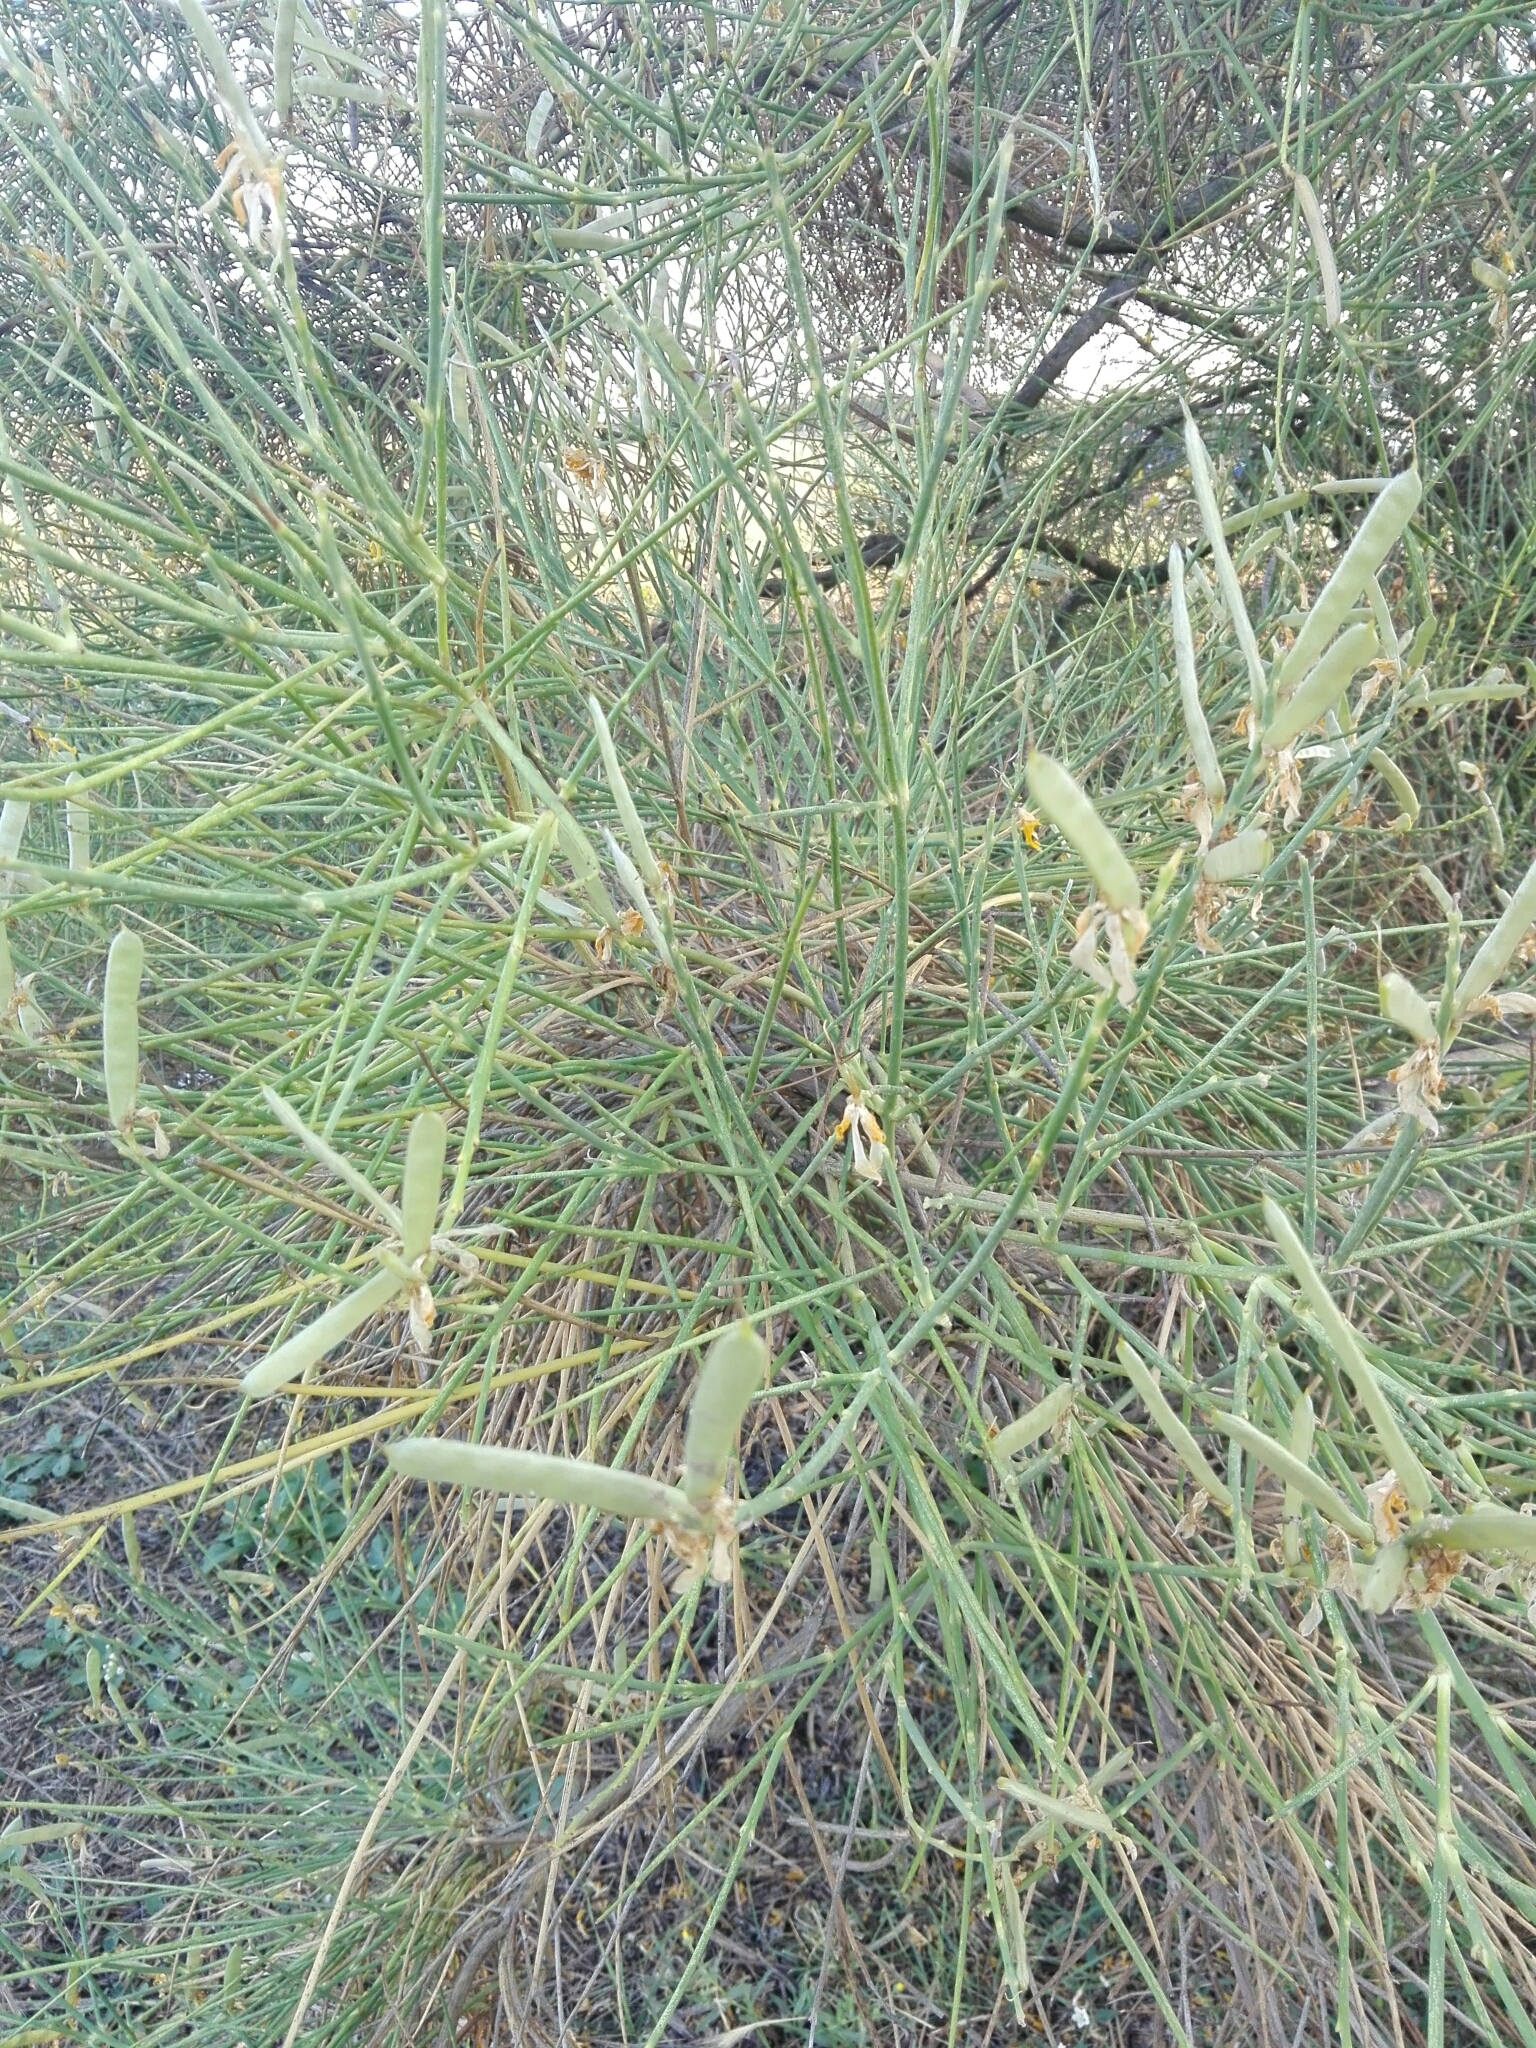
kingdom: Plantae
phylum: Tracheophyta
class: Magnoliopsida
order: Fabales
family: Fabaceae
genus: Spartium
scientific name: Spartium junceum
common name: Spanish broom
